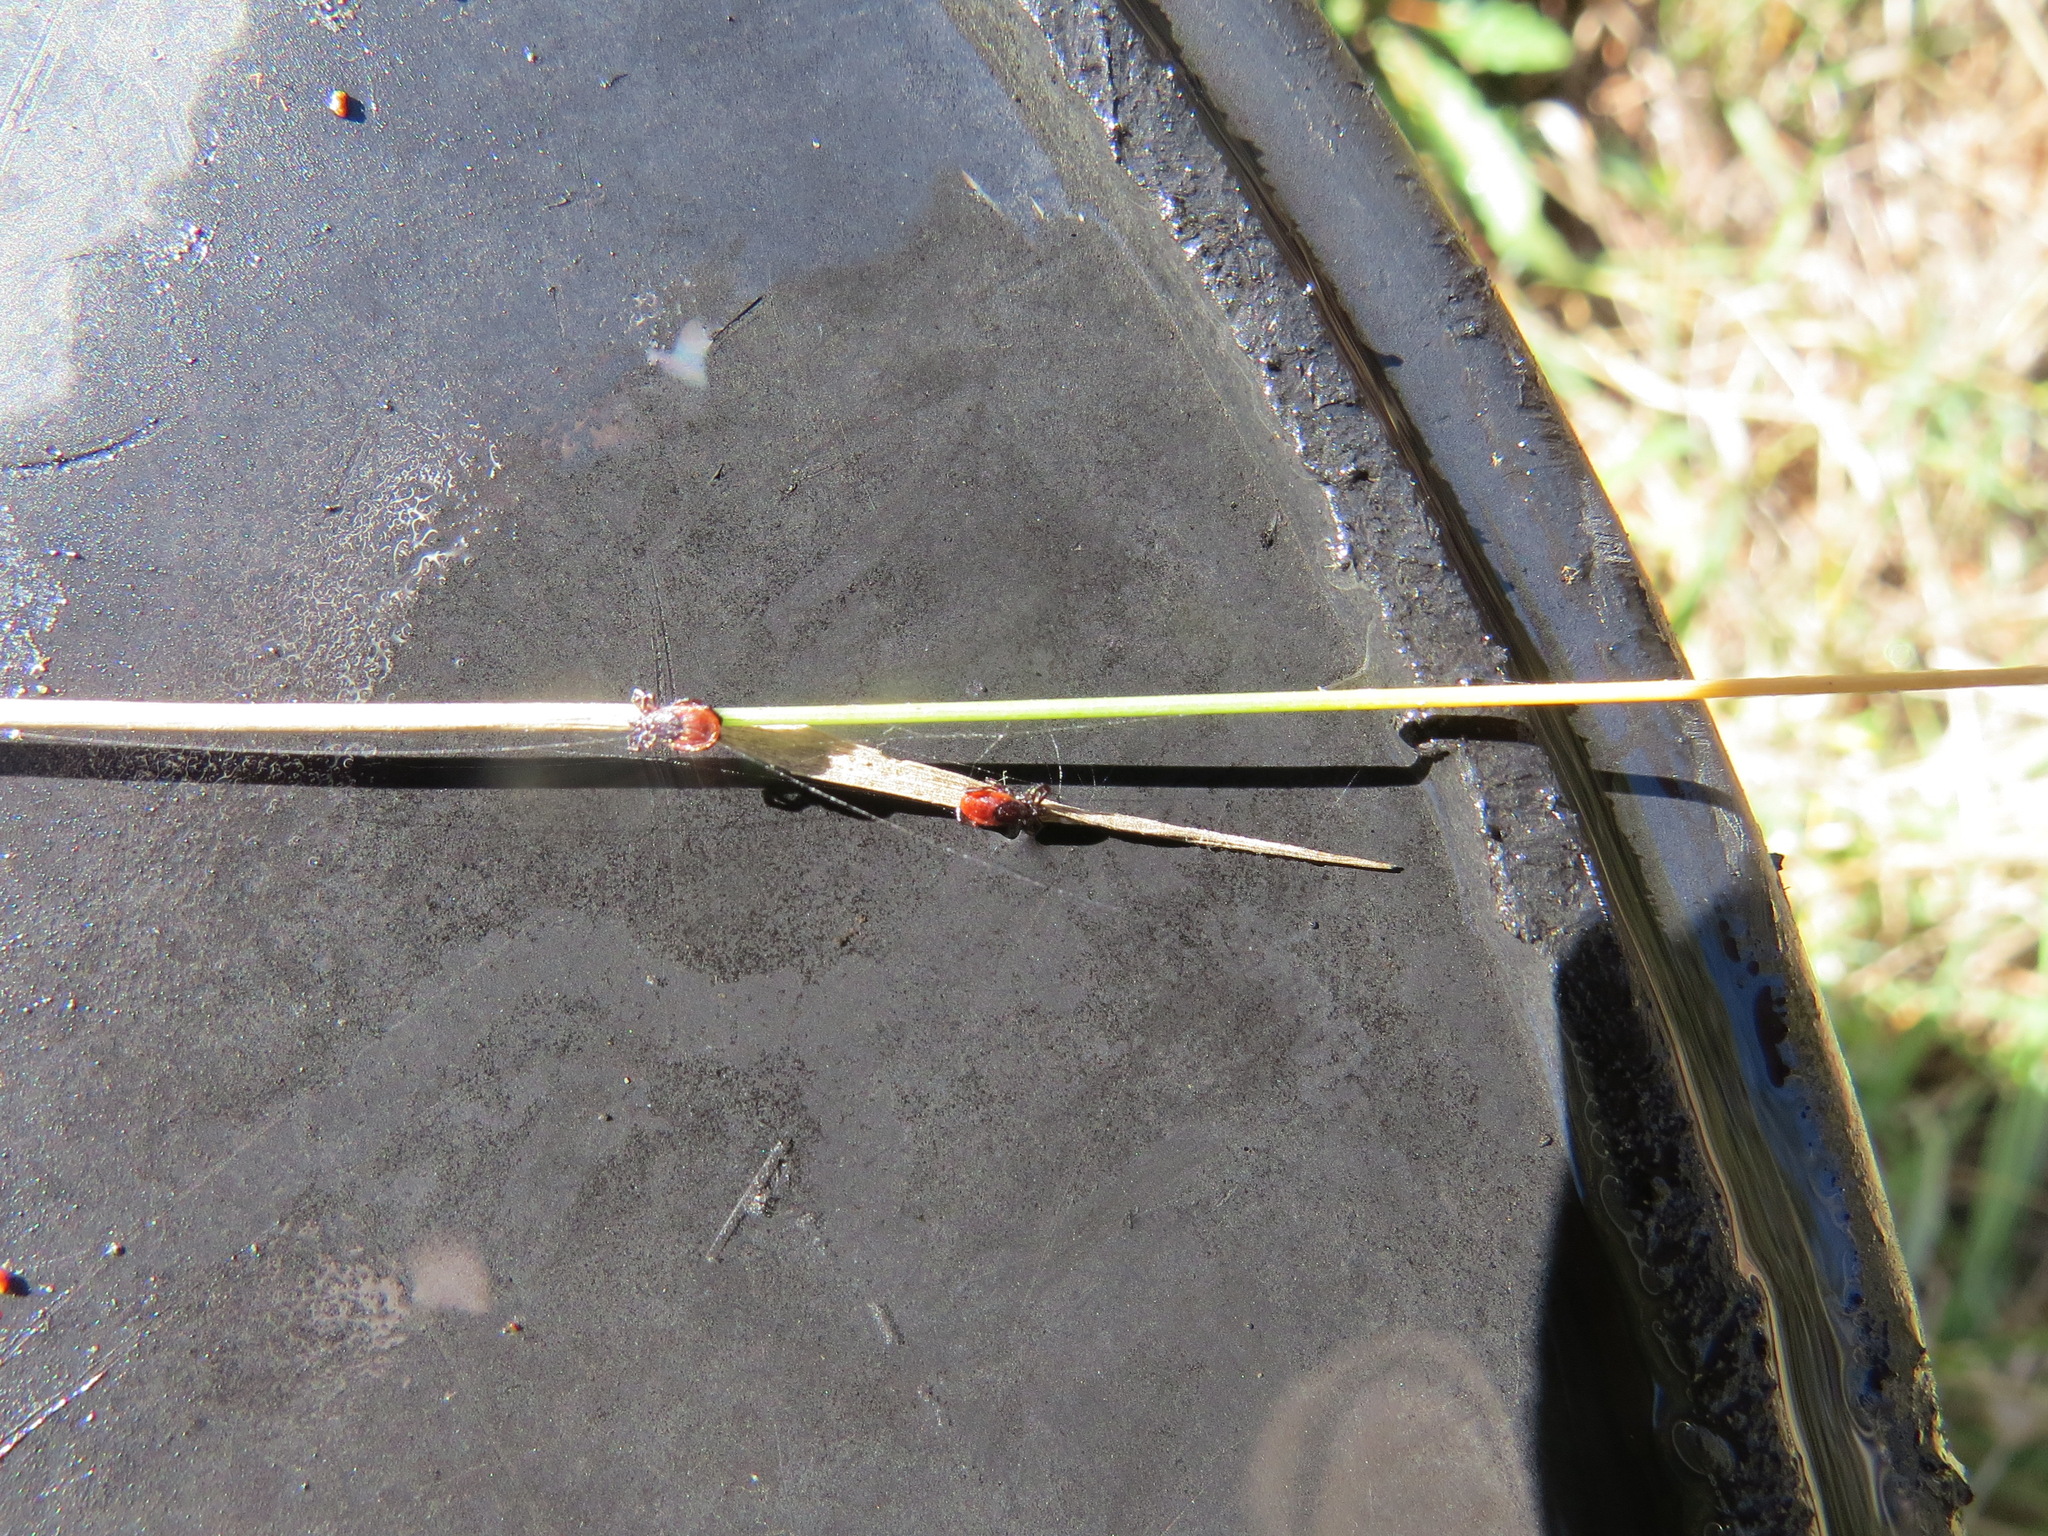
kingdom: Animalia
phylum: Arthropoda
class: Arachnida
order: Ixodida
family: Ixodidae
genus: Ixodes
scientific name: Ixodes pacificus
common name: California black-legged tick
